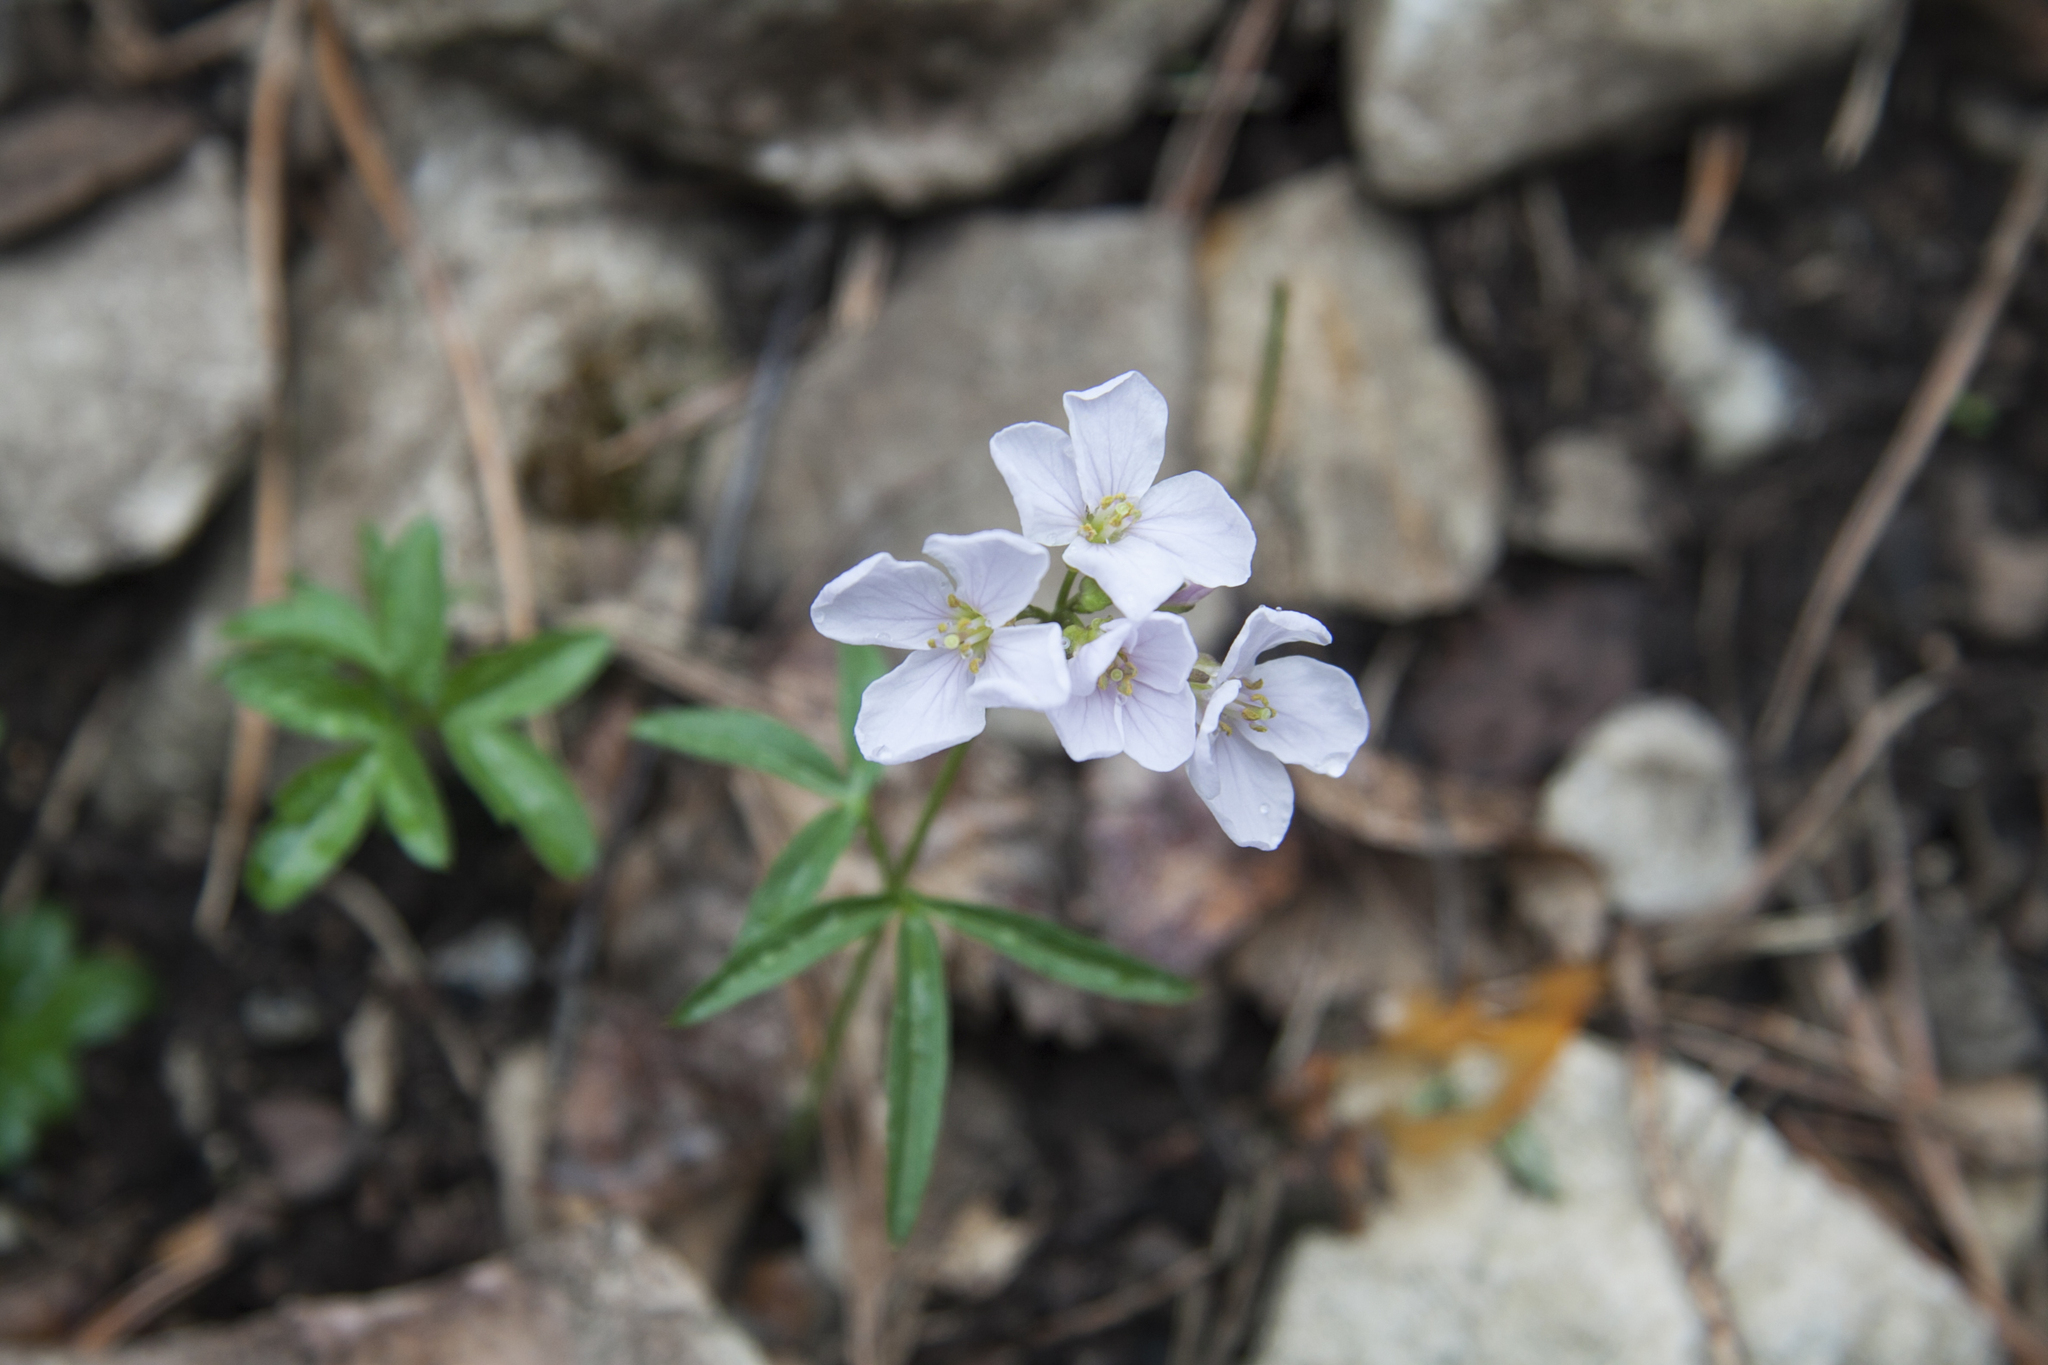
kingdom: Plantae
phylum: Tracheophyta
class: Magnoliopsida
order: Brassicales
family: Brassicaceae
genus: Cardamine
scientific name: Cardamine trifida
